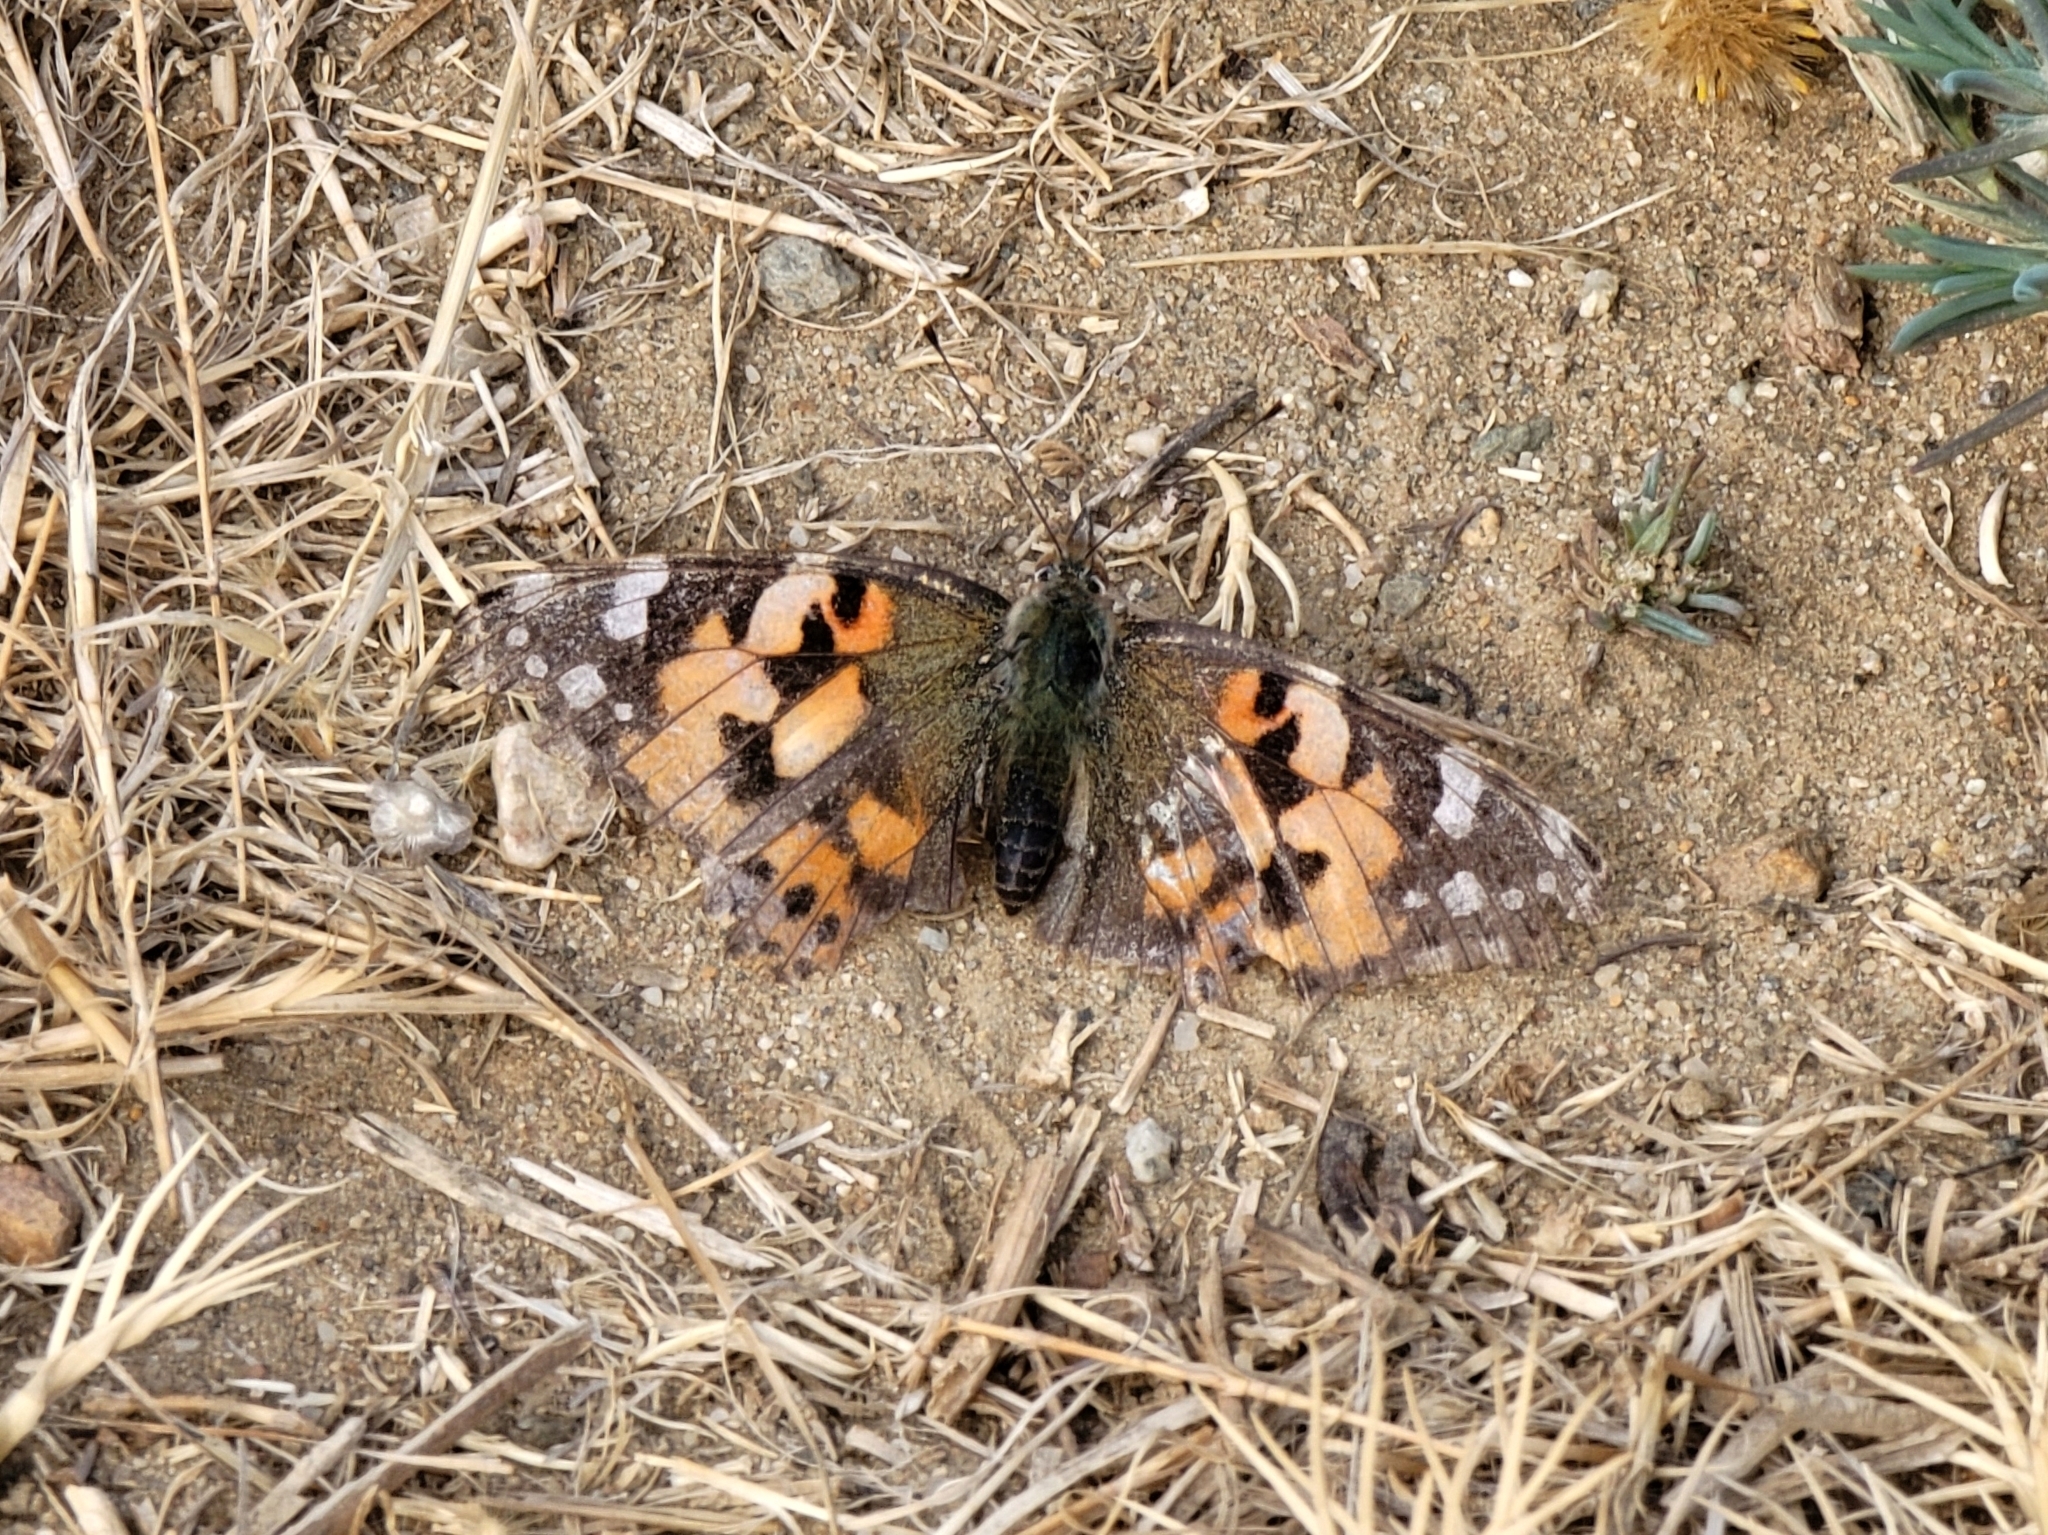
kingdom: Animalia
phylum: Arthropoda
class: Insecta
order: Lepidoptera
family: Nymphalidae
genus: Vanessa
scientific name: Vanessa cardui
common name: Painted lady
